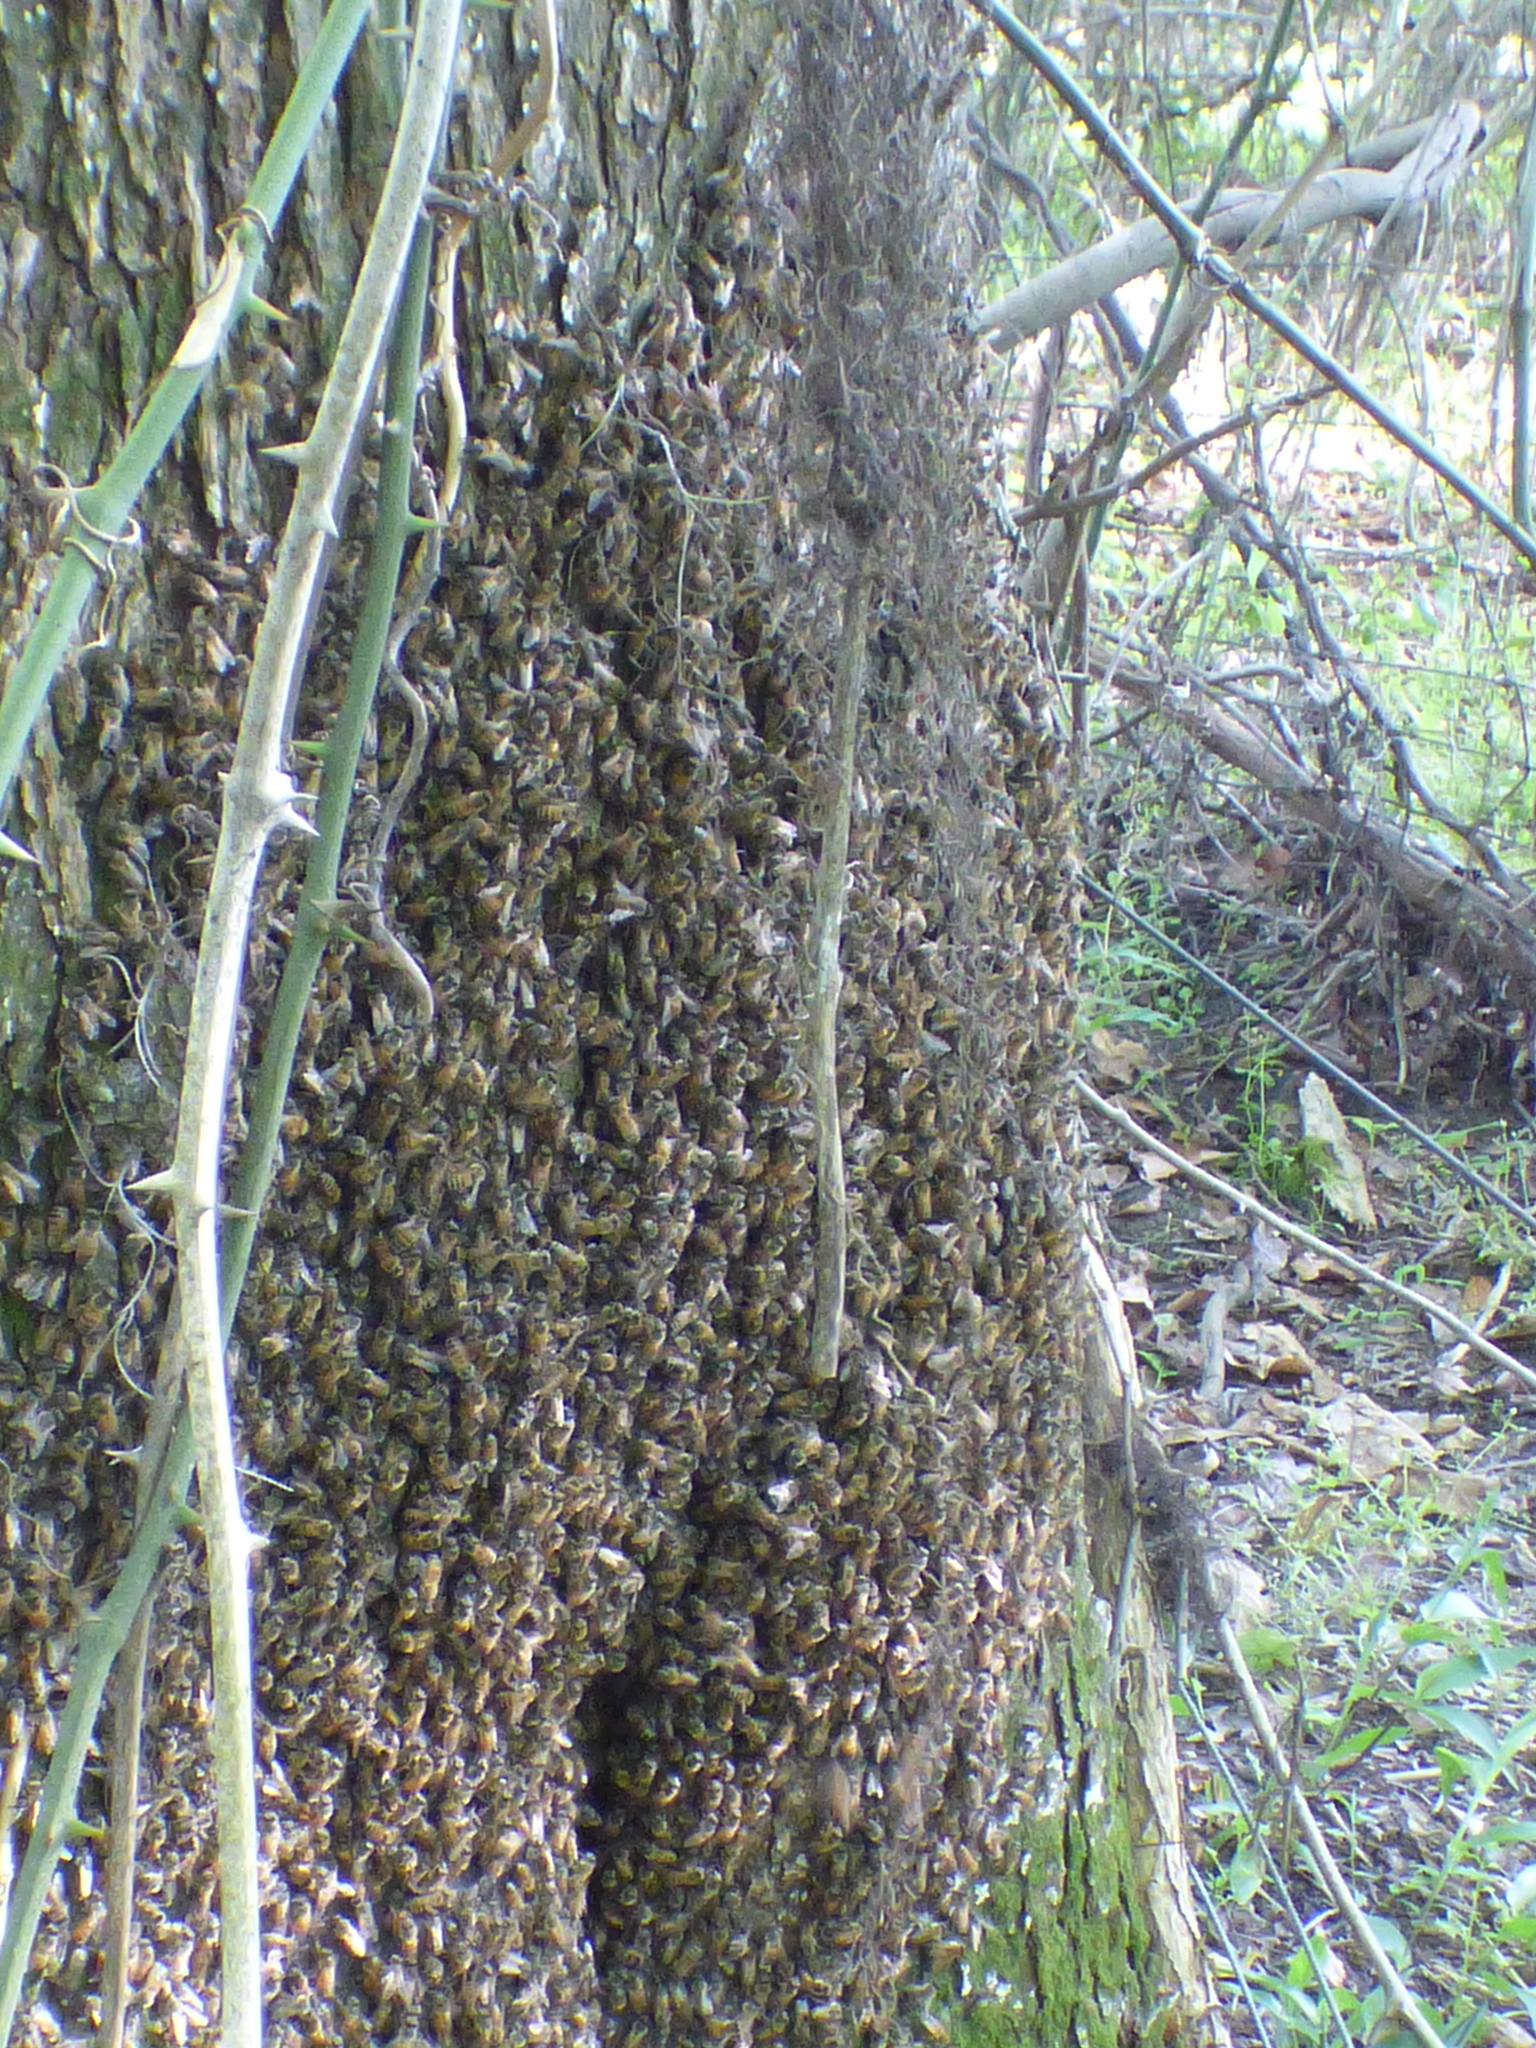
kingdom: Animalia
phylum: Arthropoda
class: Insecta
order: Hymenoptera
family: Apidae
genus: Apis
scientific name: Apis mellifera
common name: Honey bee
